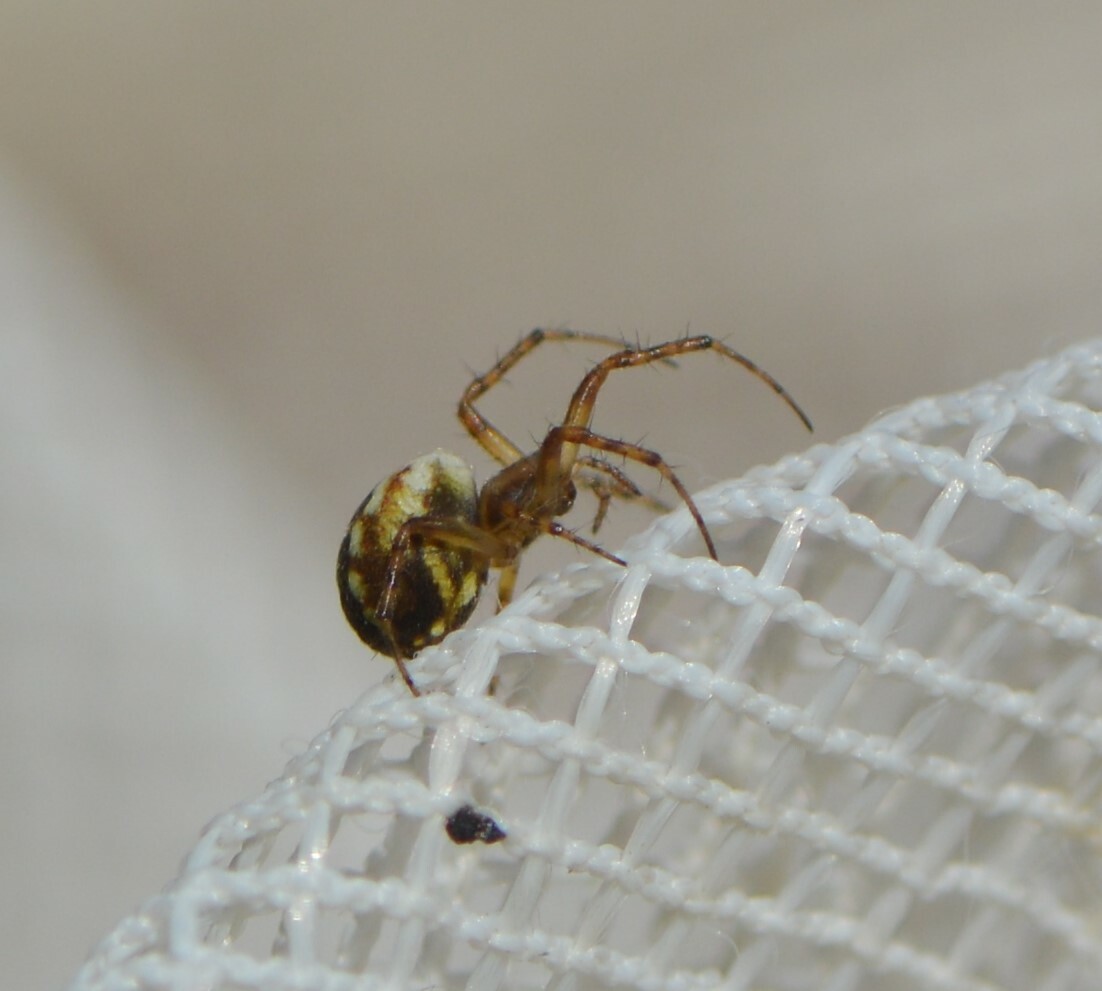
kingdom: Animalia
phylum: Arthropoda
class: Arachnida
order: Araneae
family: Araneidae
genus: Mangora
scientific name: Mangora placida
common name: Tuft-legged orbweaver
